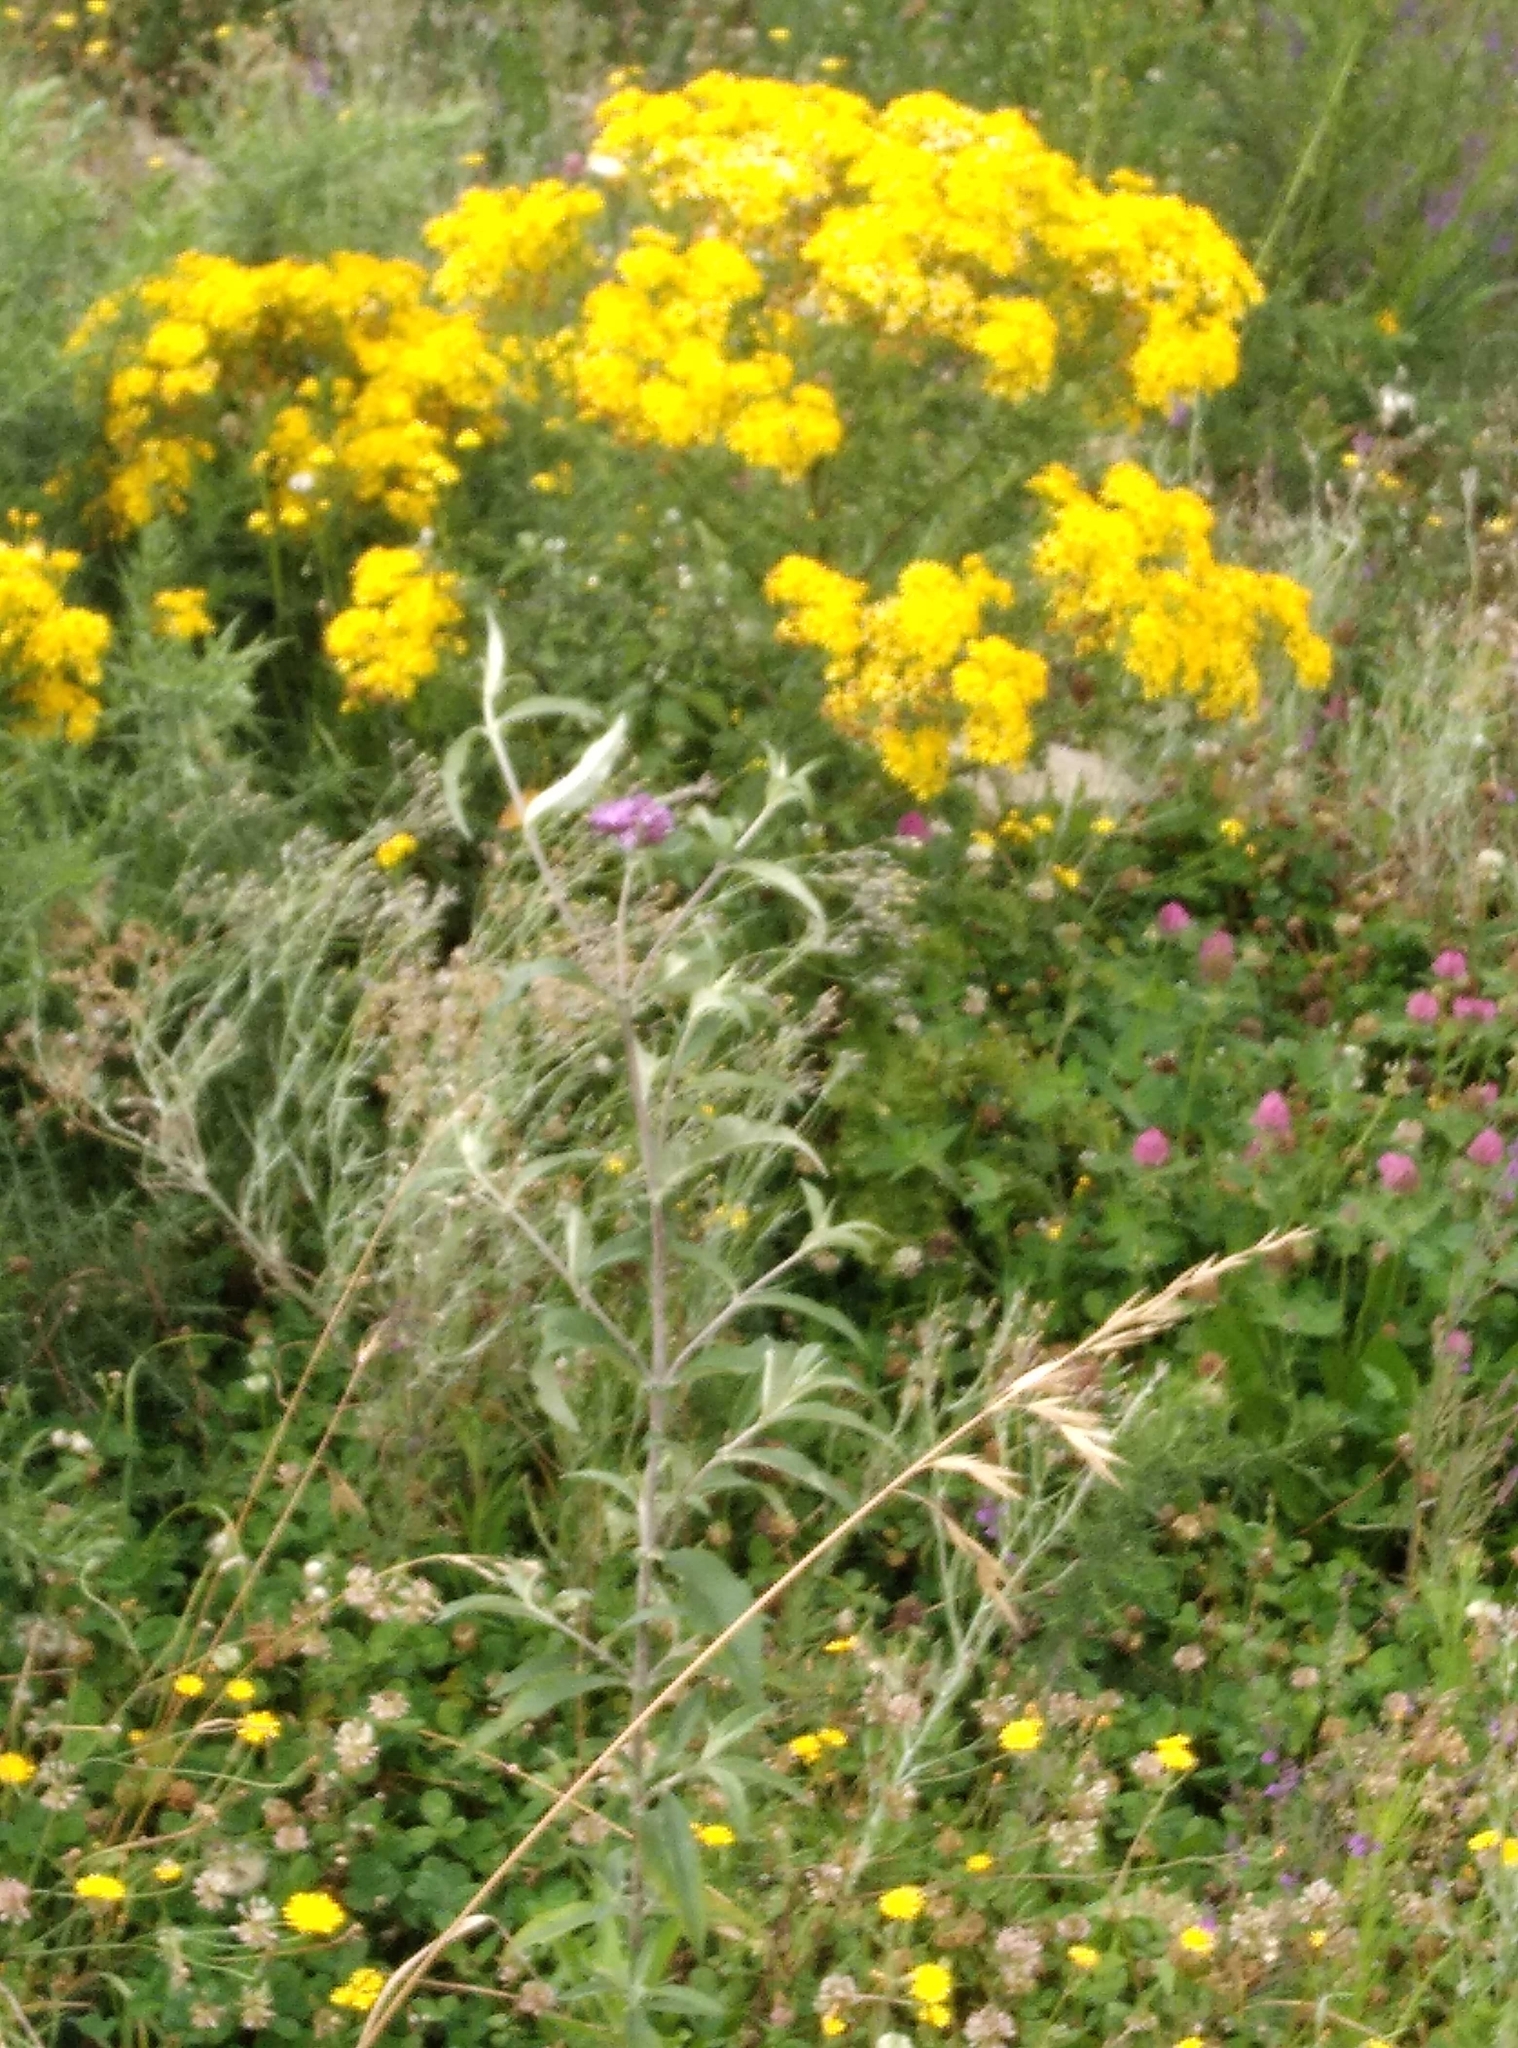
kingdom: Plantae
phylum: Tracheophyta
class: Magnoliopsida
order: Asterales
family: Asteraceae
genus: Jacobaea
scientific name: Jacobaea vulgaris
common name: Stinking willie
